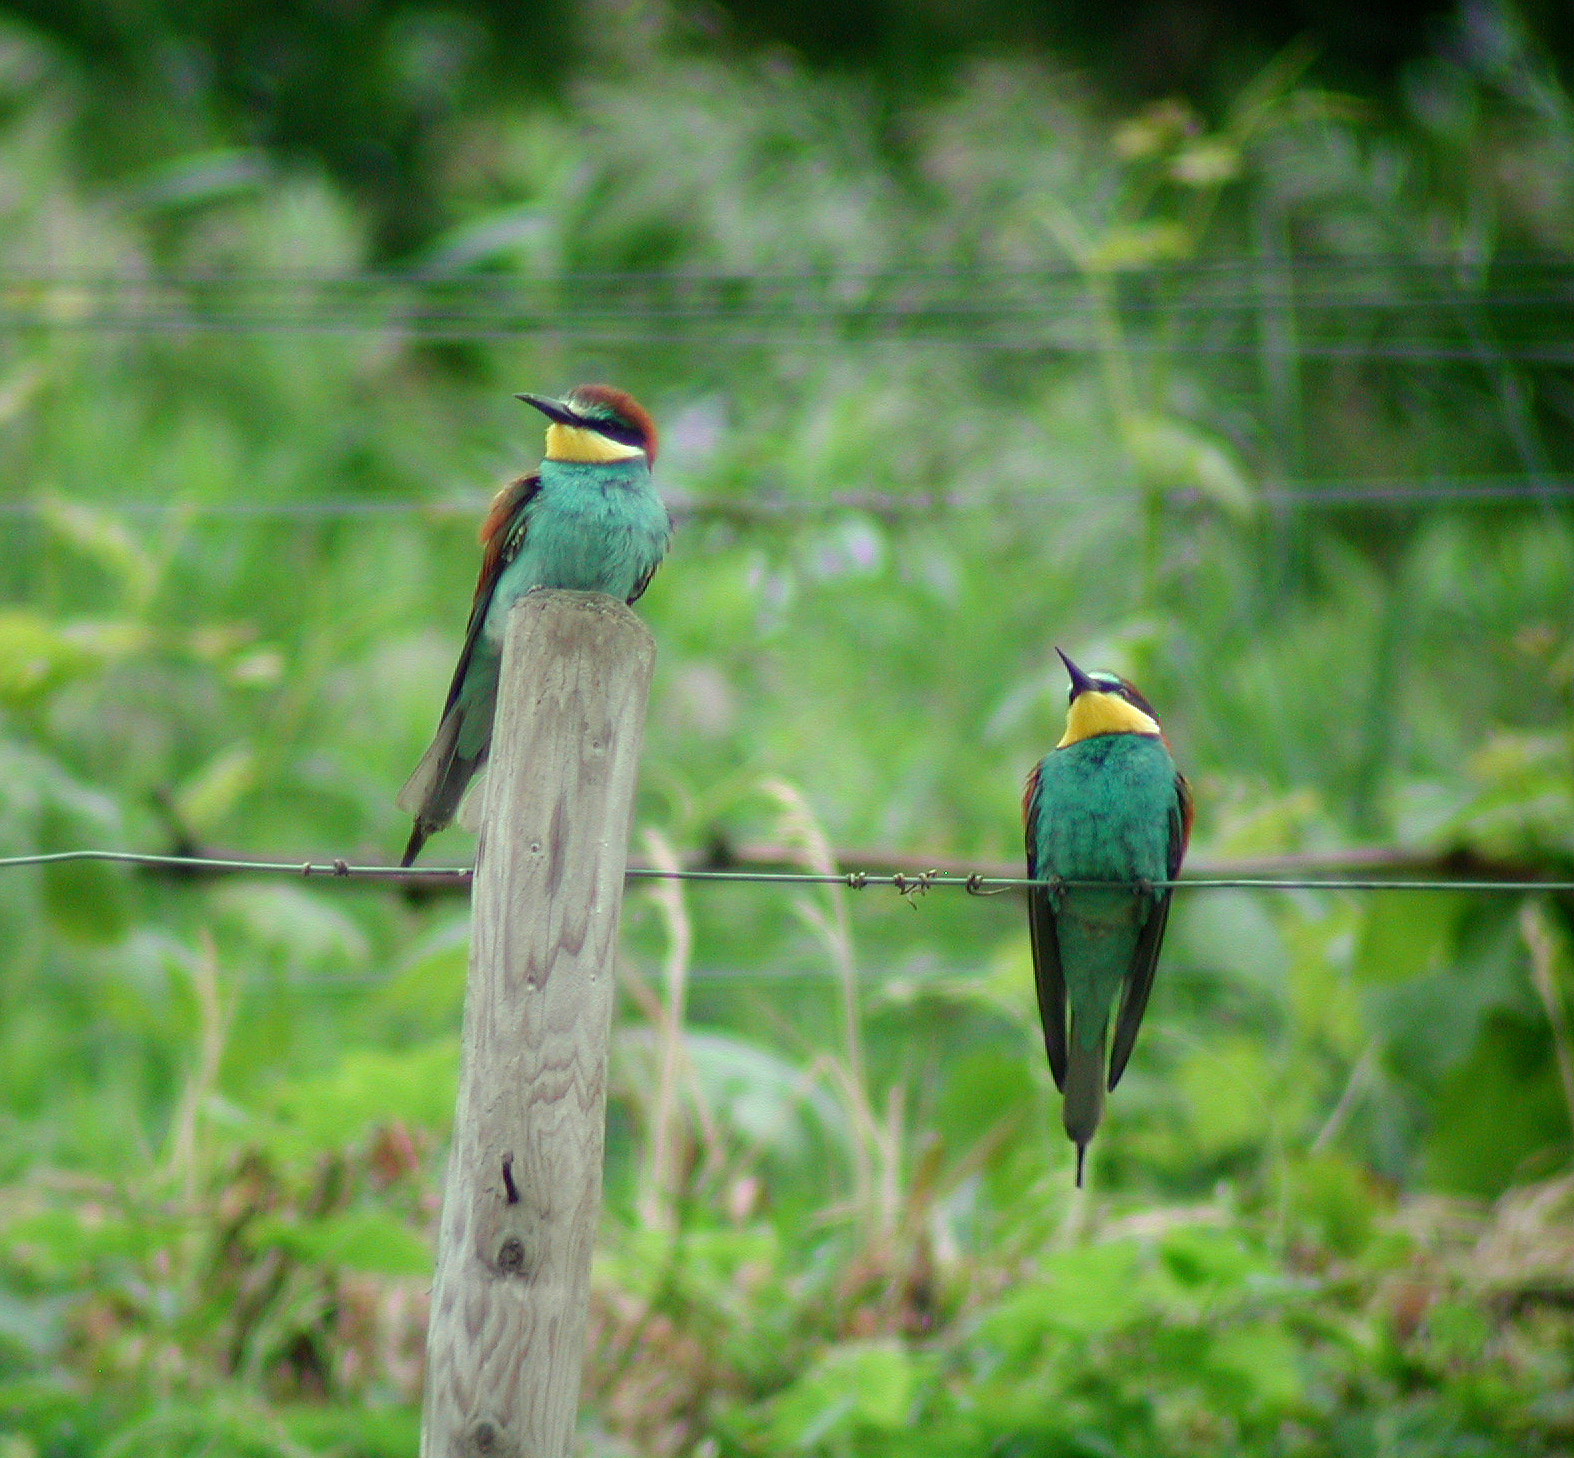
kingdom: Animalia
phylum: Chordata
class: Aves
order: Coraciiformes
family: Meropidae
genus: Merops
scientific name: Merops apiaster
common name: European bee-eater
